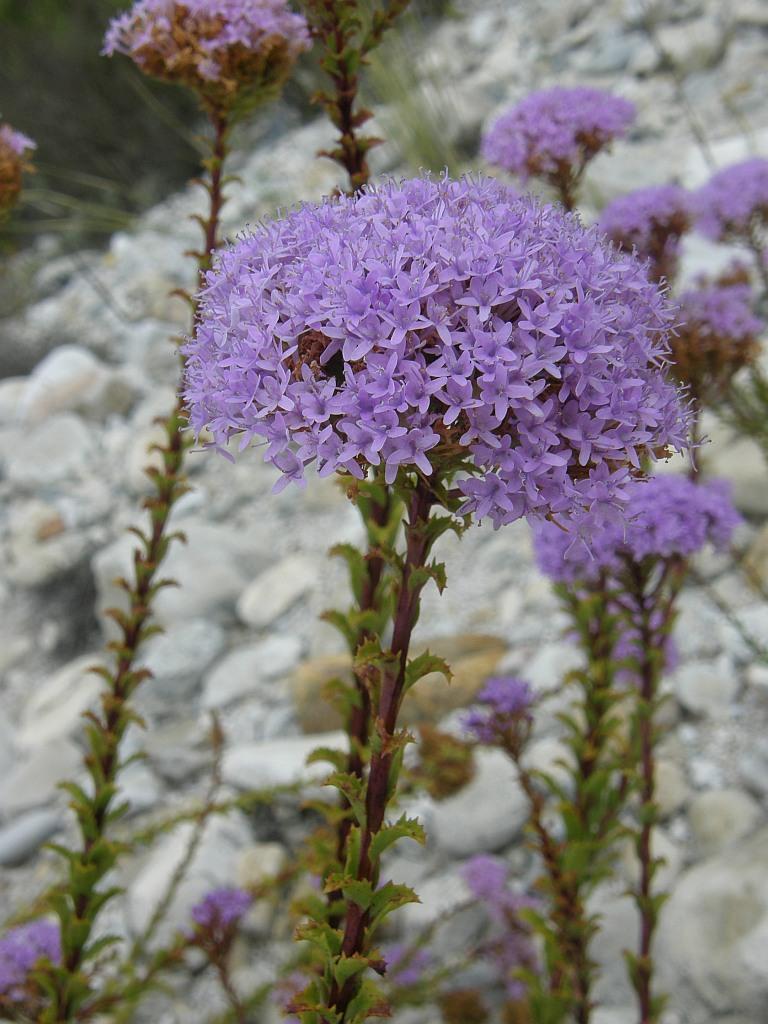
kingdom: Plantae
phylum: Tracheophyta
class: Magnoliopsida
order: Lamiales
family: Scrophulariaceae
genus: Pseudoselago
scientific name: Pseudoselago serrata
